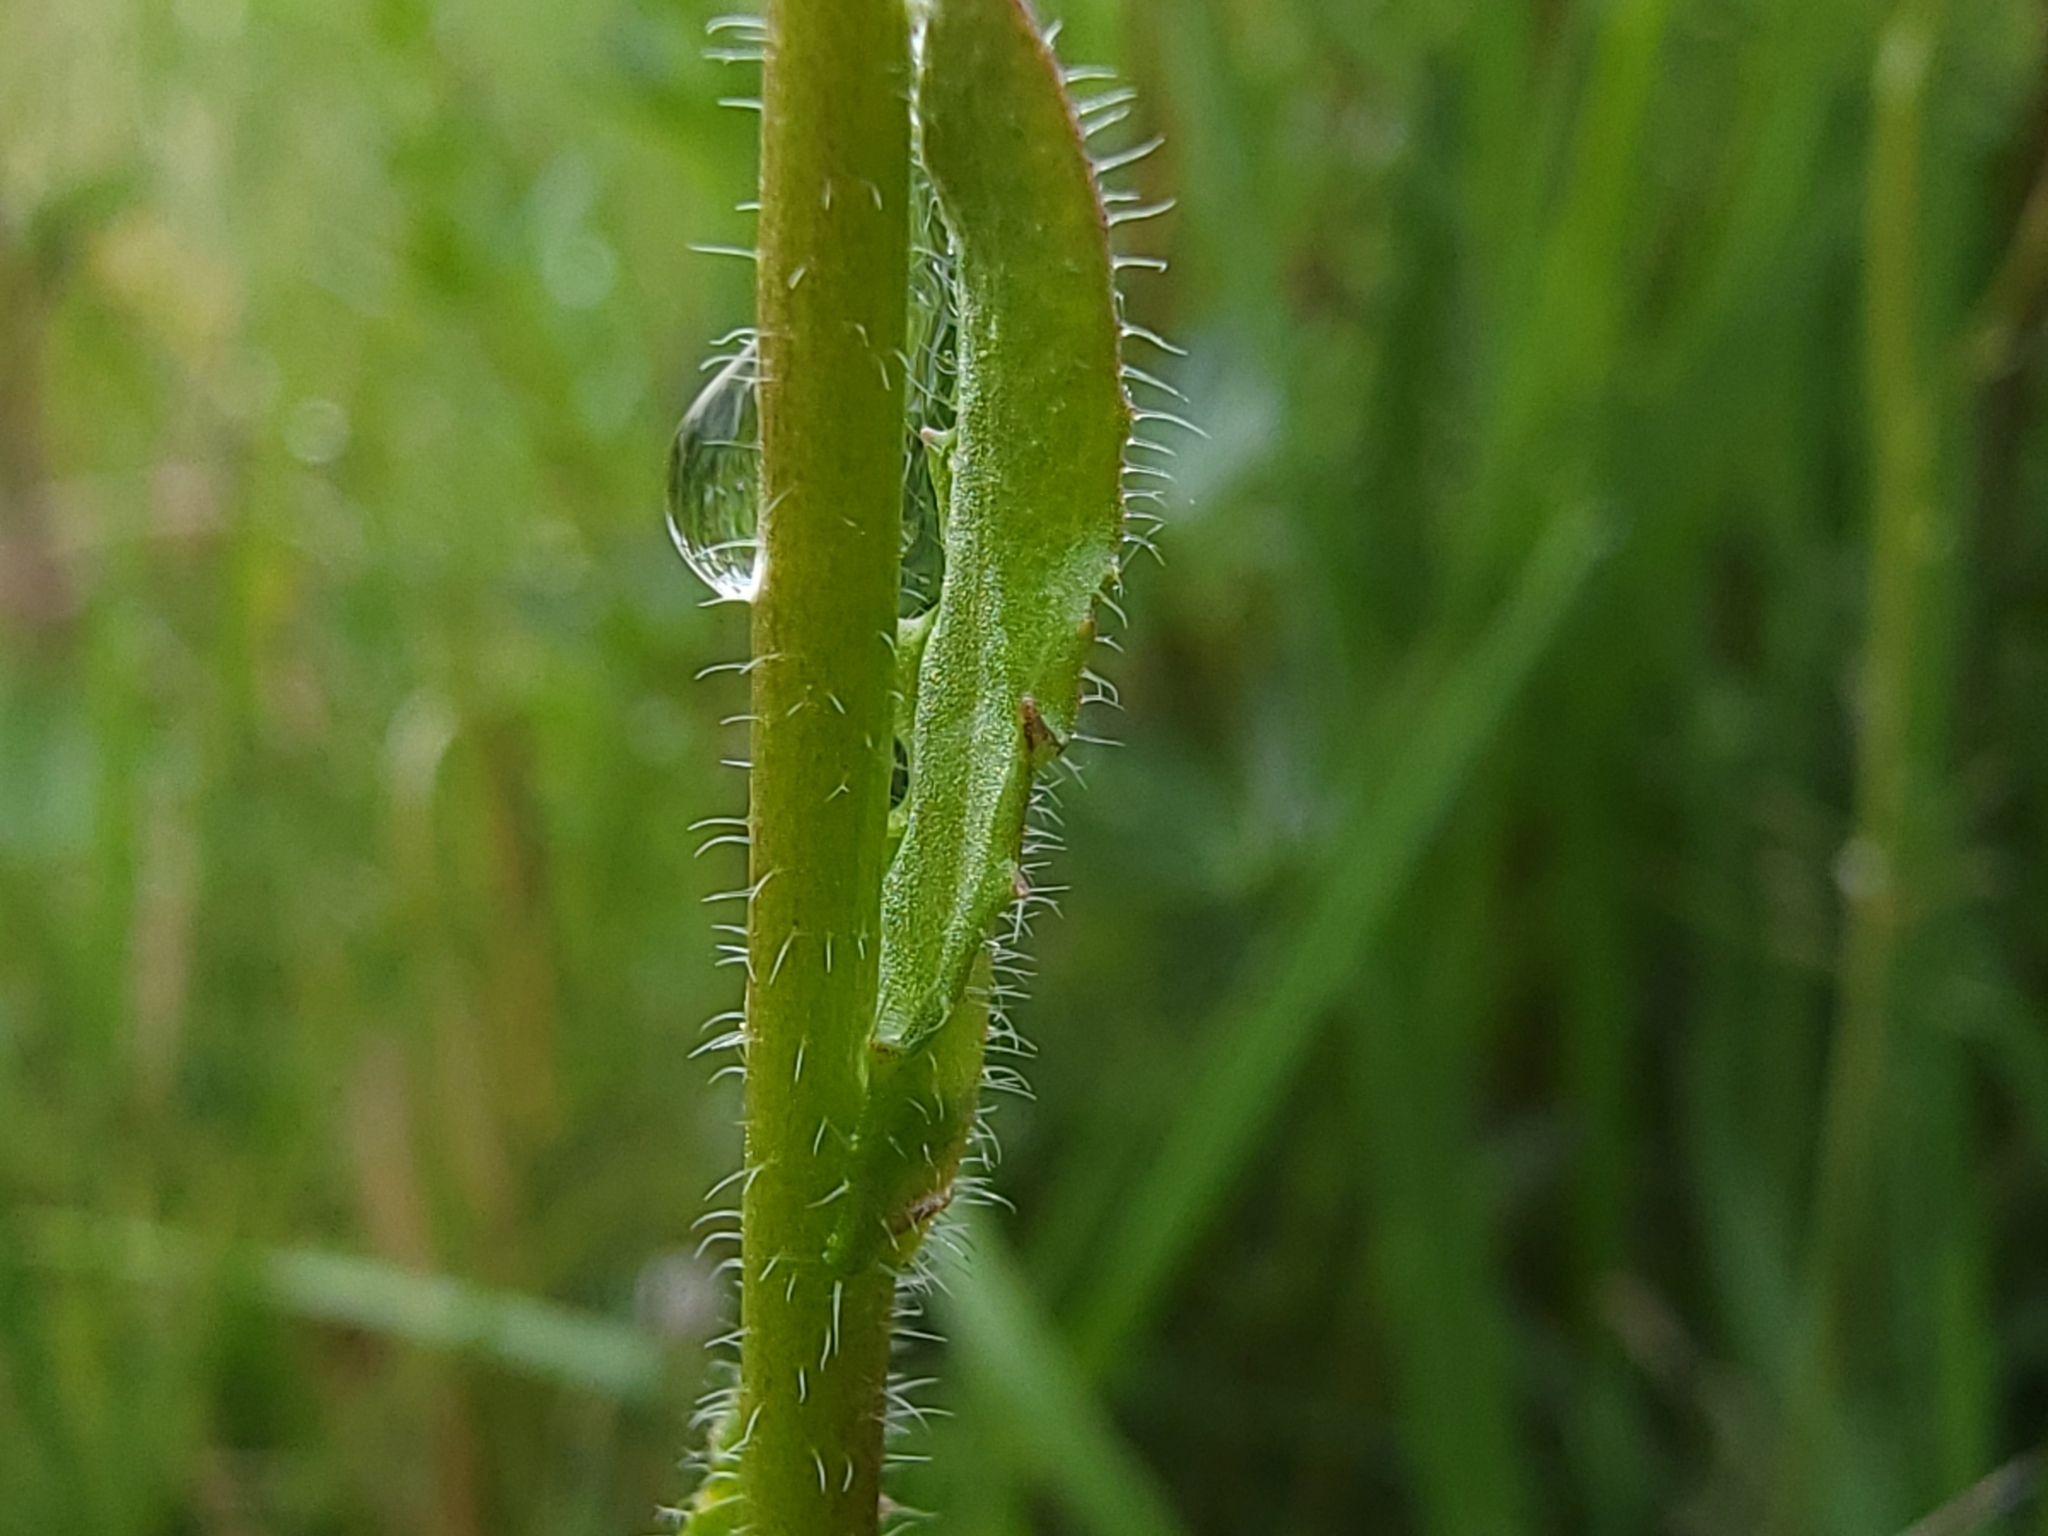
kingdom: Plantae
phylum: Tracheophyta
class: Magnoliopsida
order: Brassicales
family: Brassicaceae
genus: Arabis
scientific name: Arabis hirsuta
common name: Hairy rock-cress
